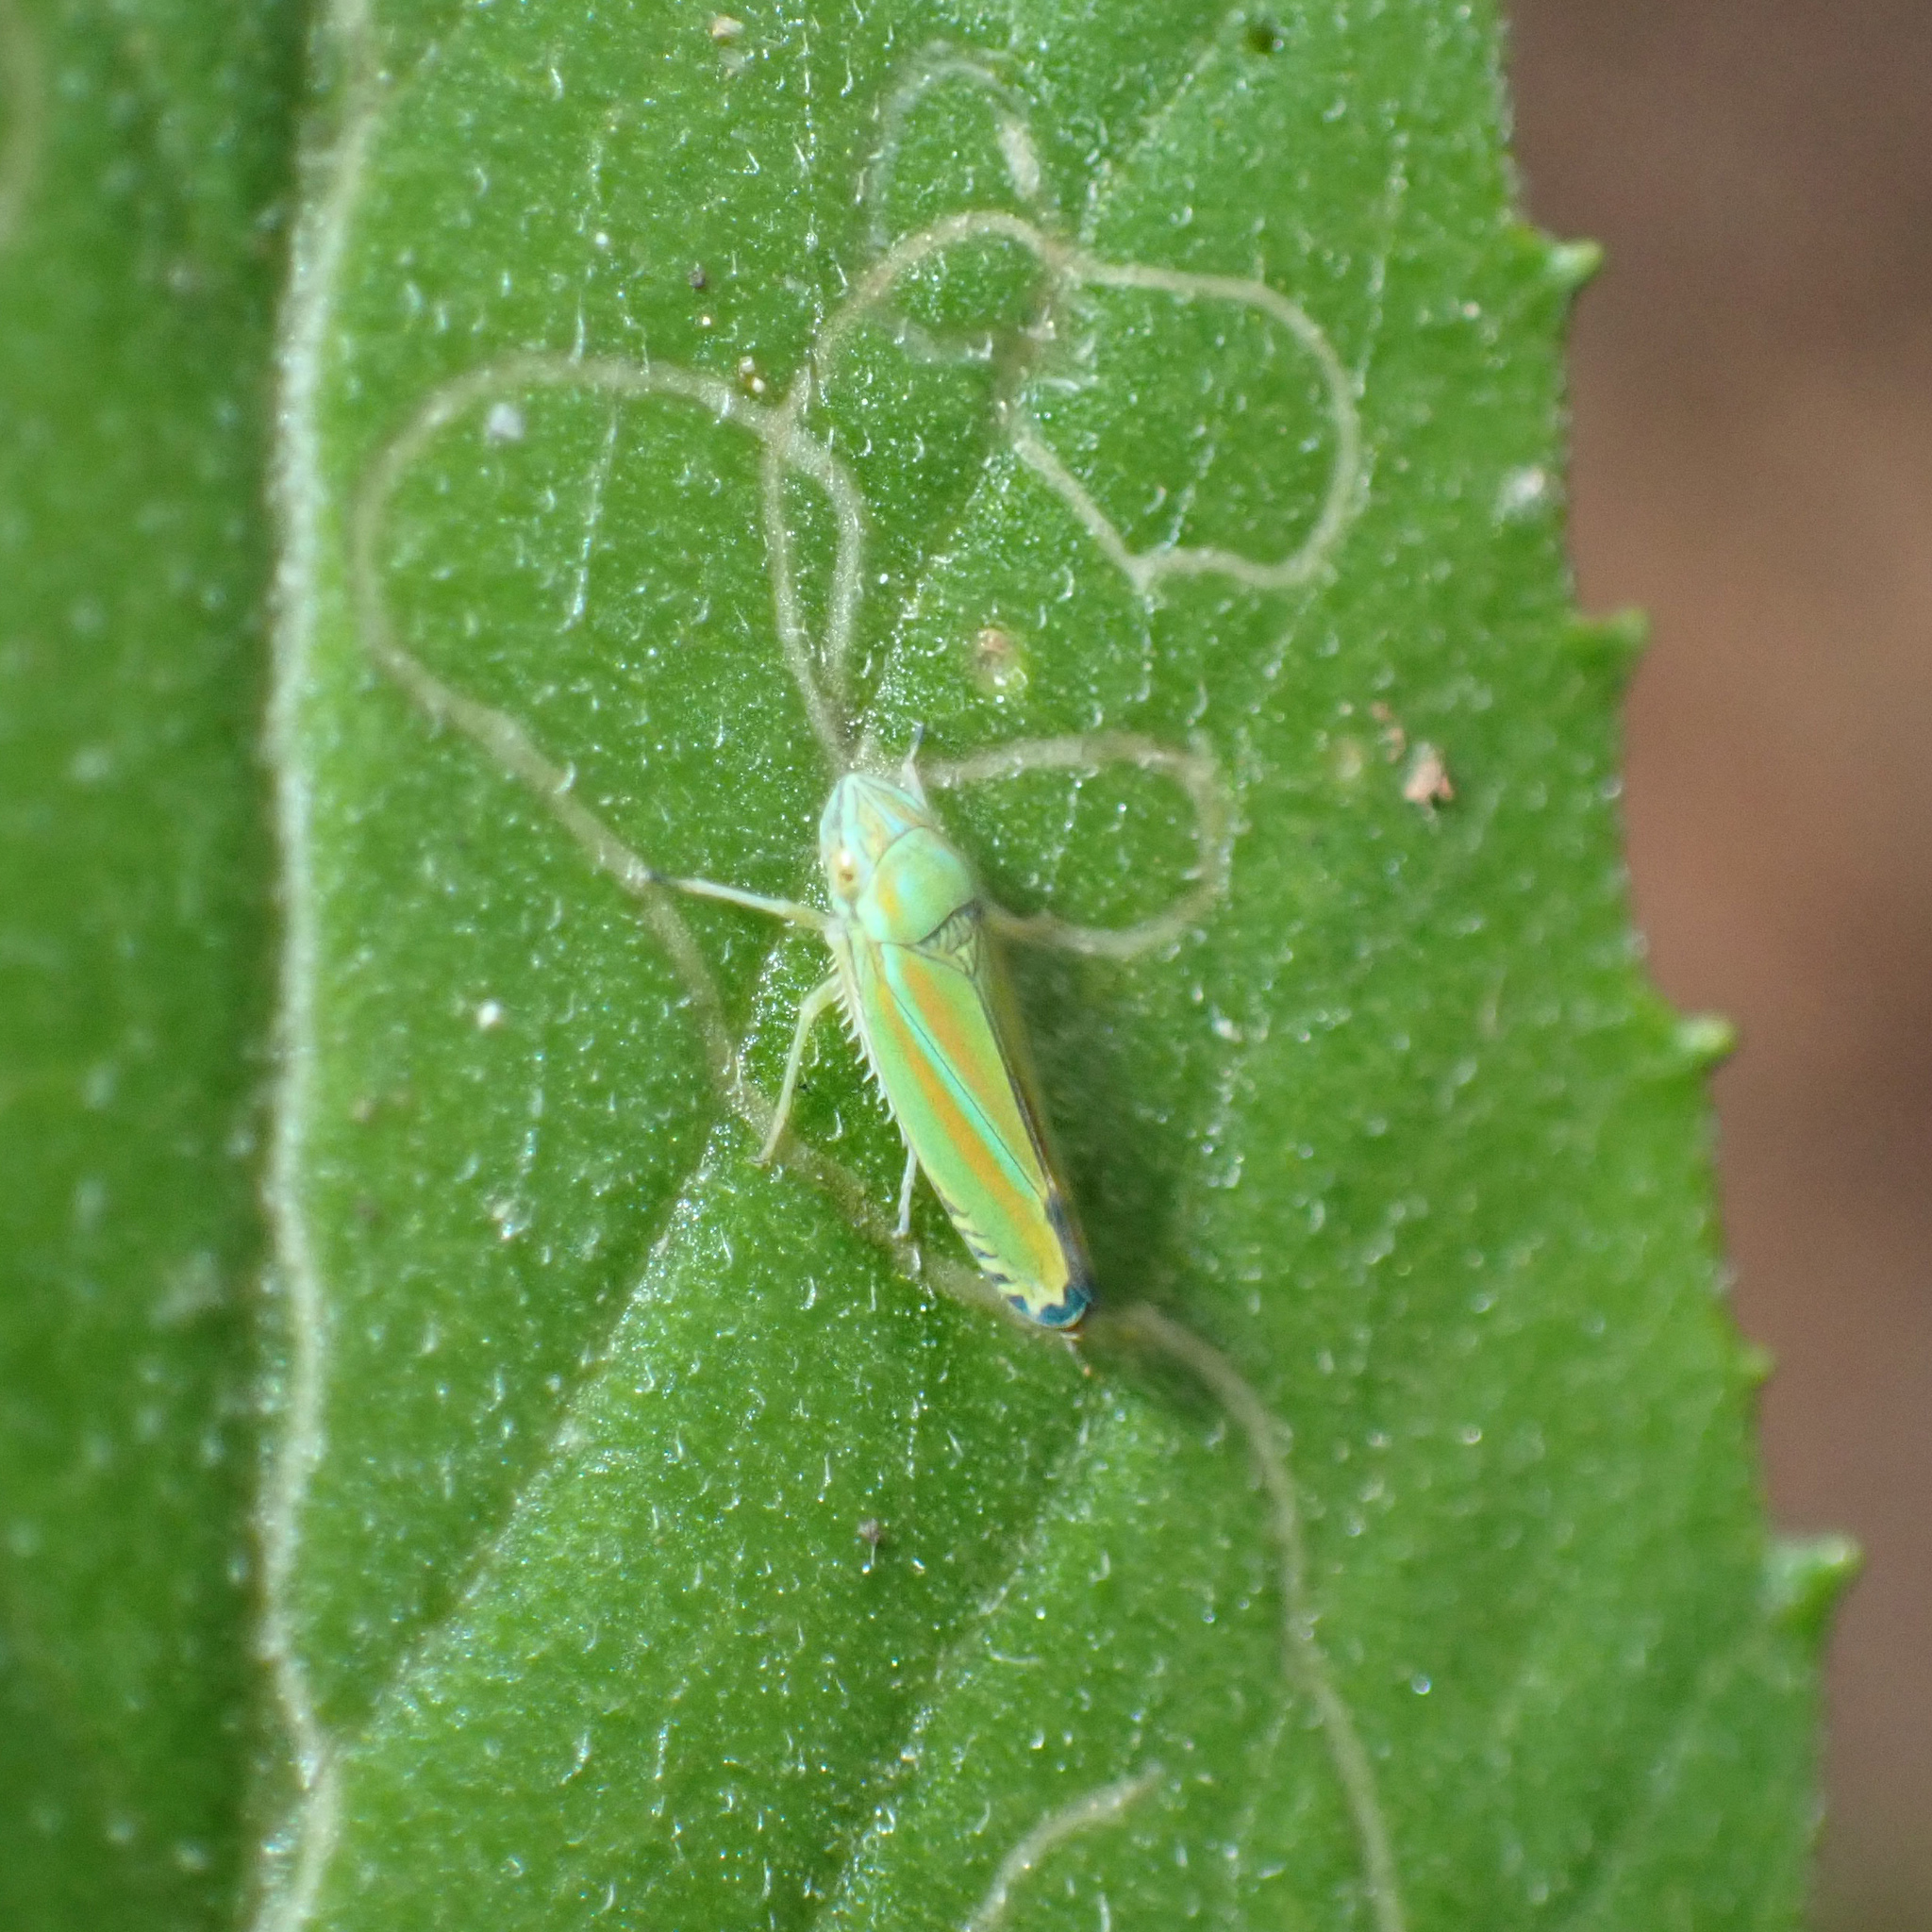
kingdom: Animalia
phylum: Arthropoda
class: Insecta
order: Hemiptera
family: Cicadellidae
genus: Graphocephala
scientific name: Graphocephala versuta
